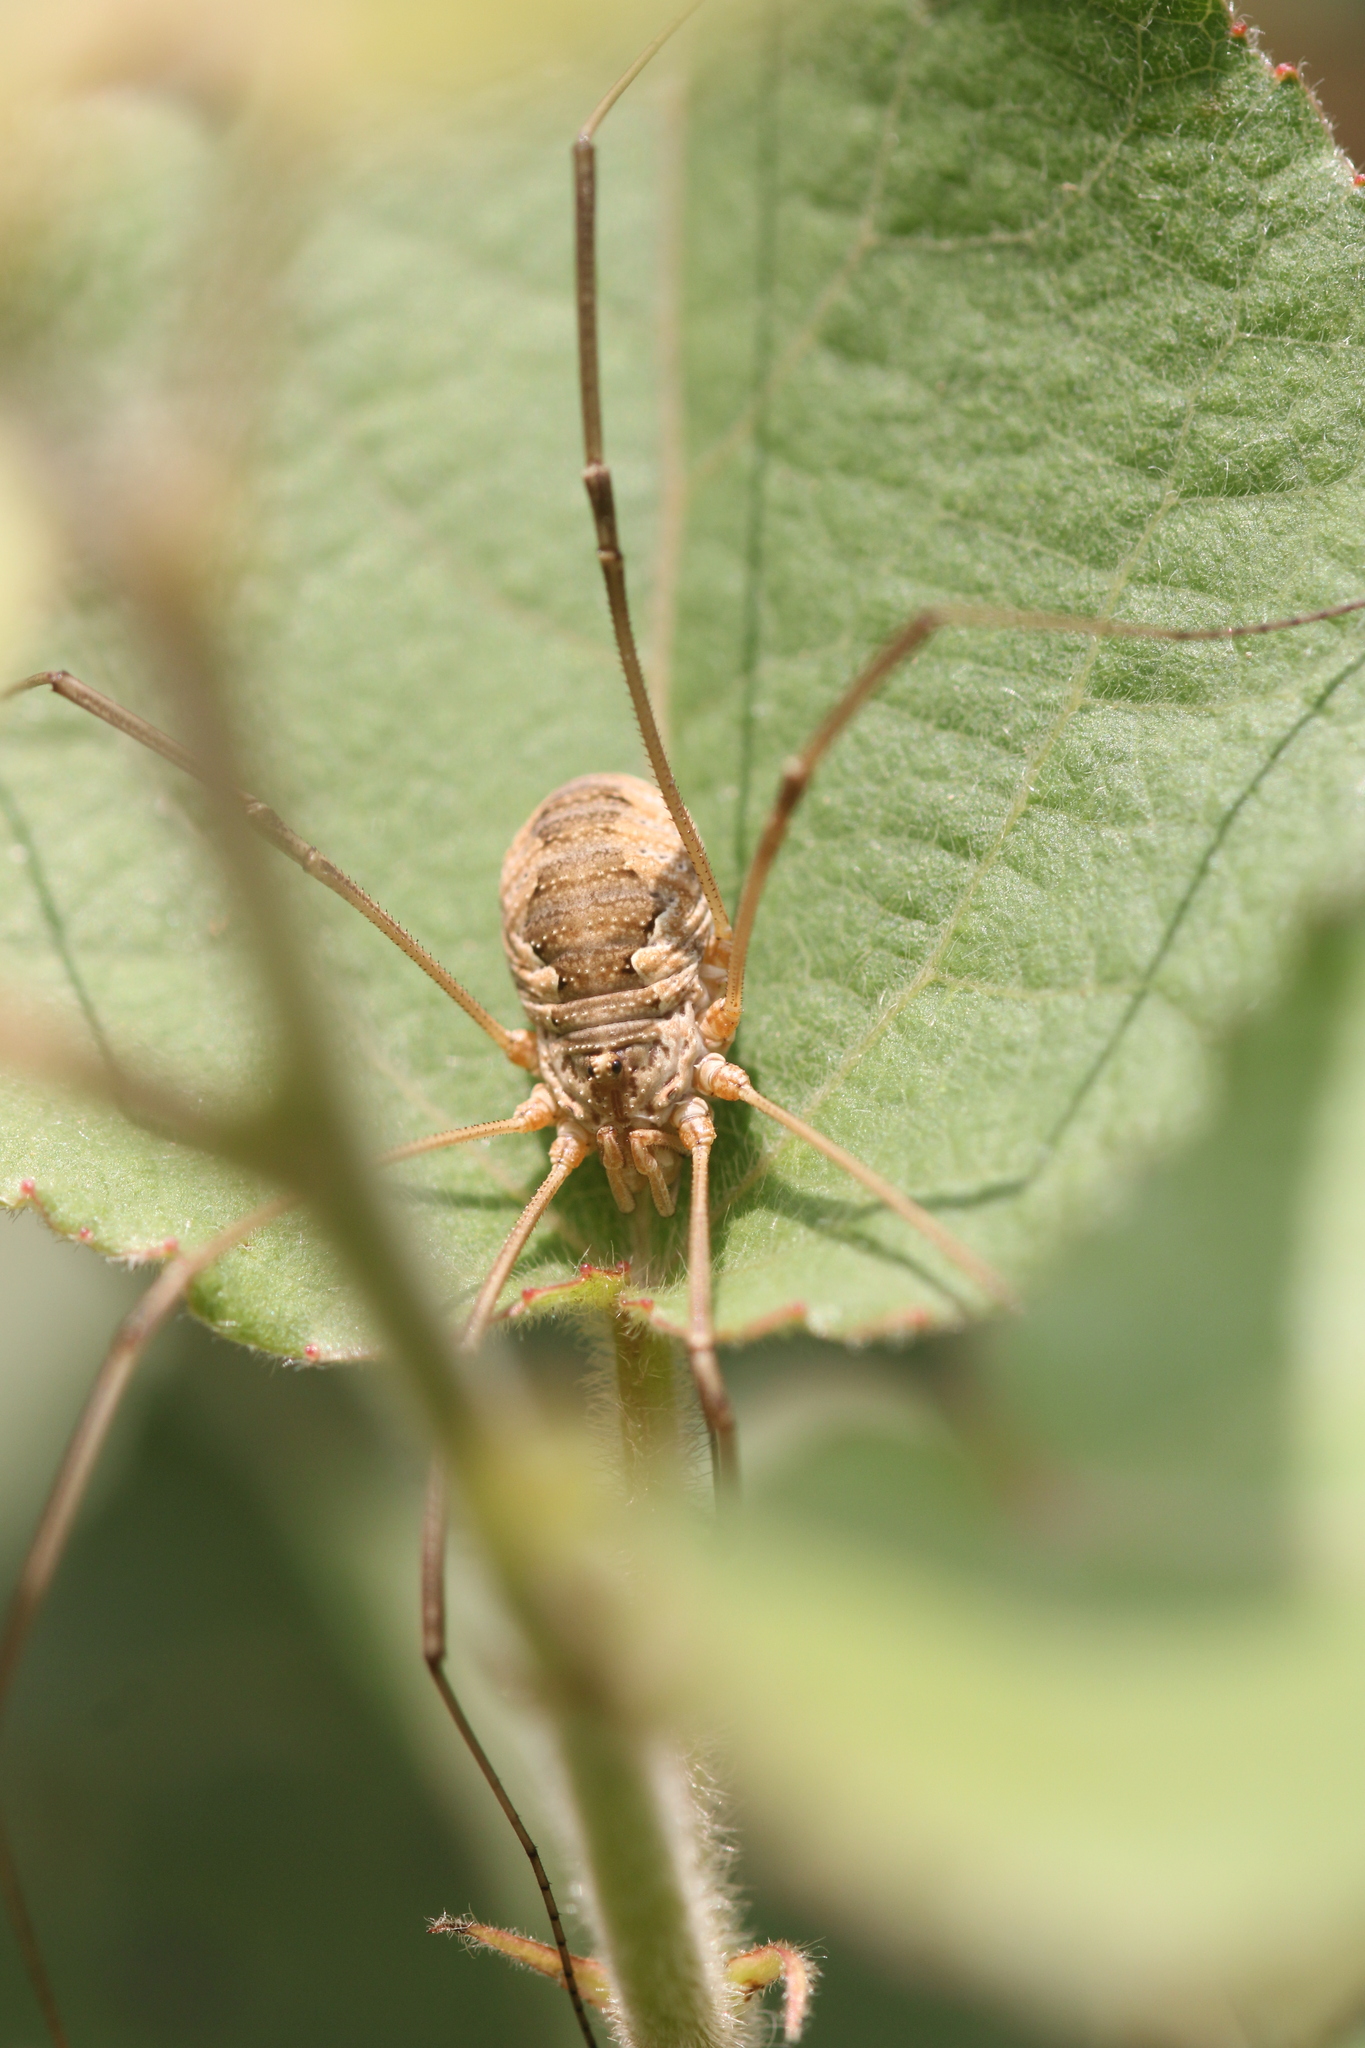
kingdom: Animalia
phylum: Arthropoda
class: Arachnida
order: Opiliones
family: Phalangiidae
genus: Phalangium
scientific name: Phalangium opilio
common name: Daddy longleg
